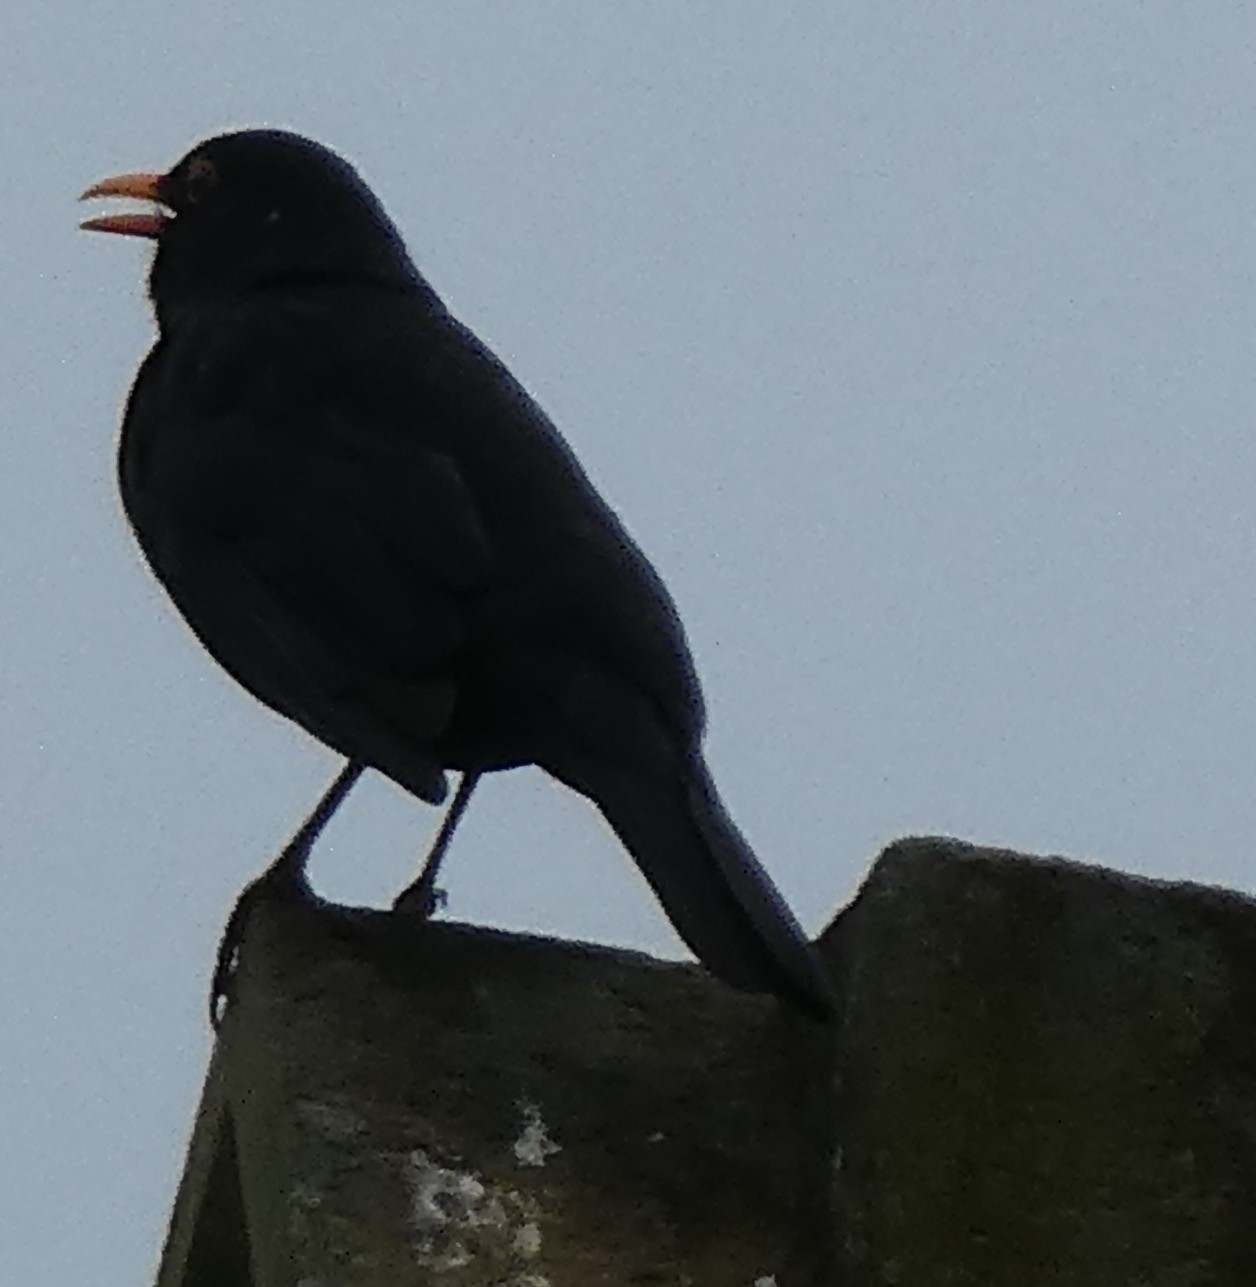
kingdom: Animalia
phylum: Chordata
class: Aves
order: Passeriformes
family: Turdidae
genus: Turdus
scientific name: Turdus merula
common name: Common blackbird
